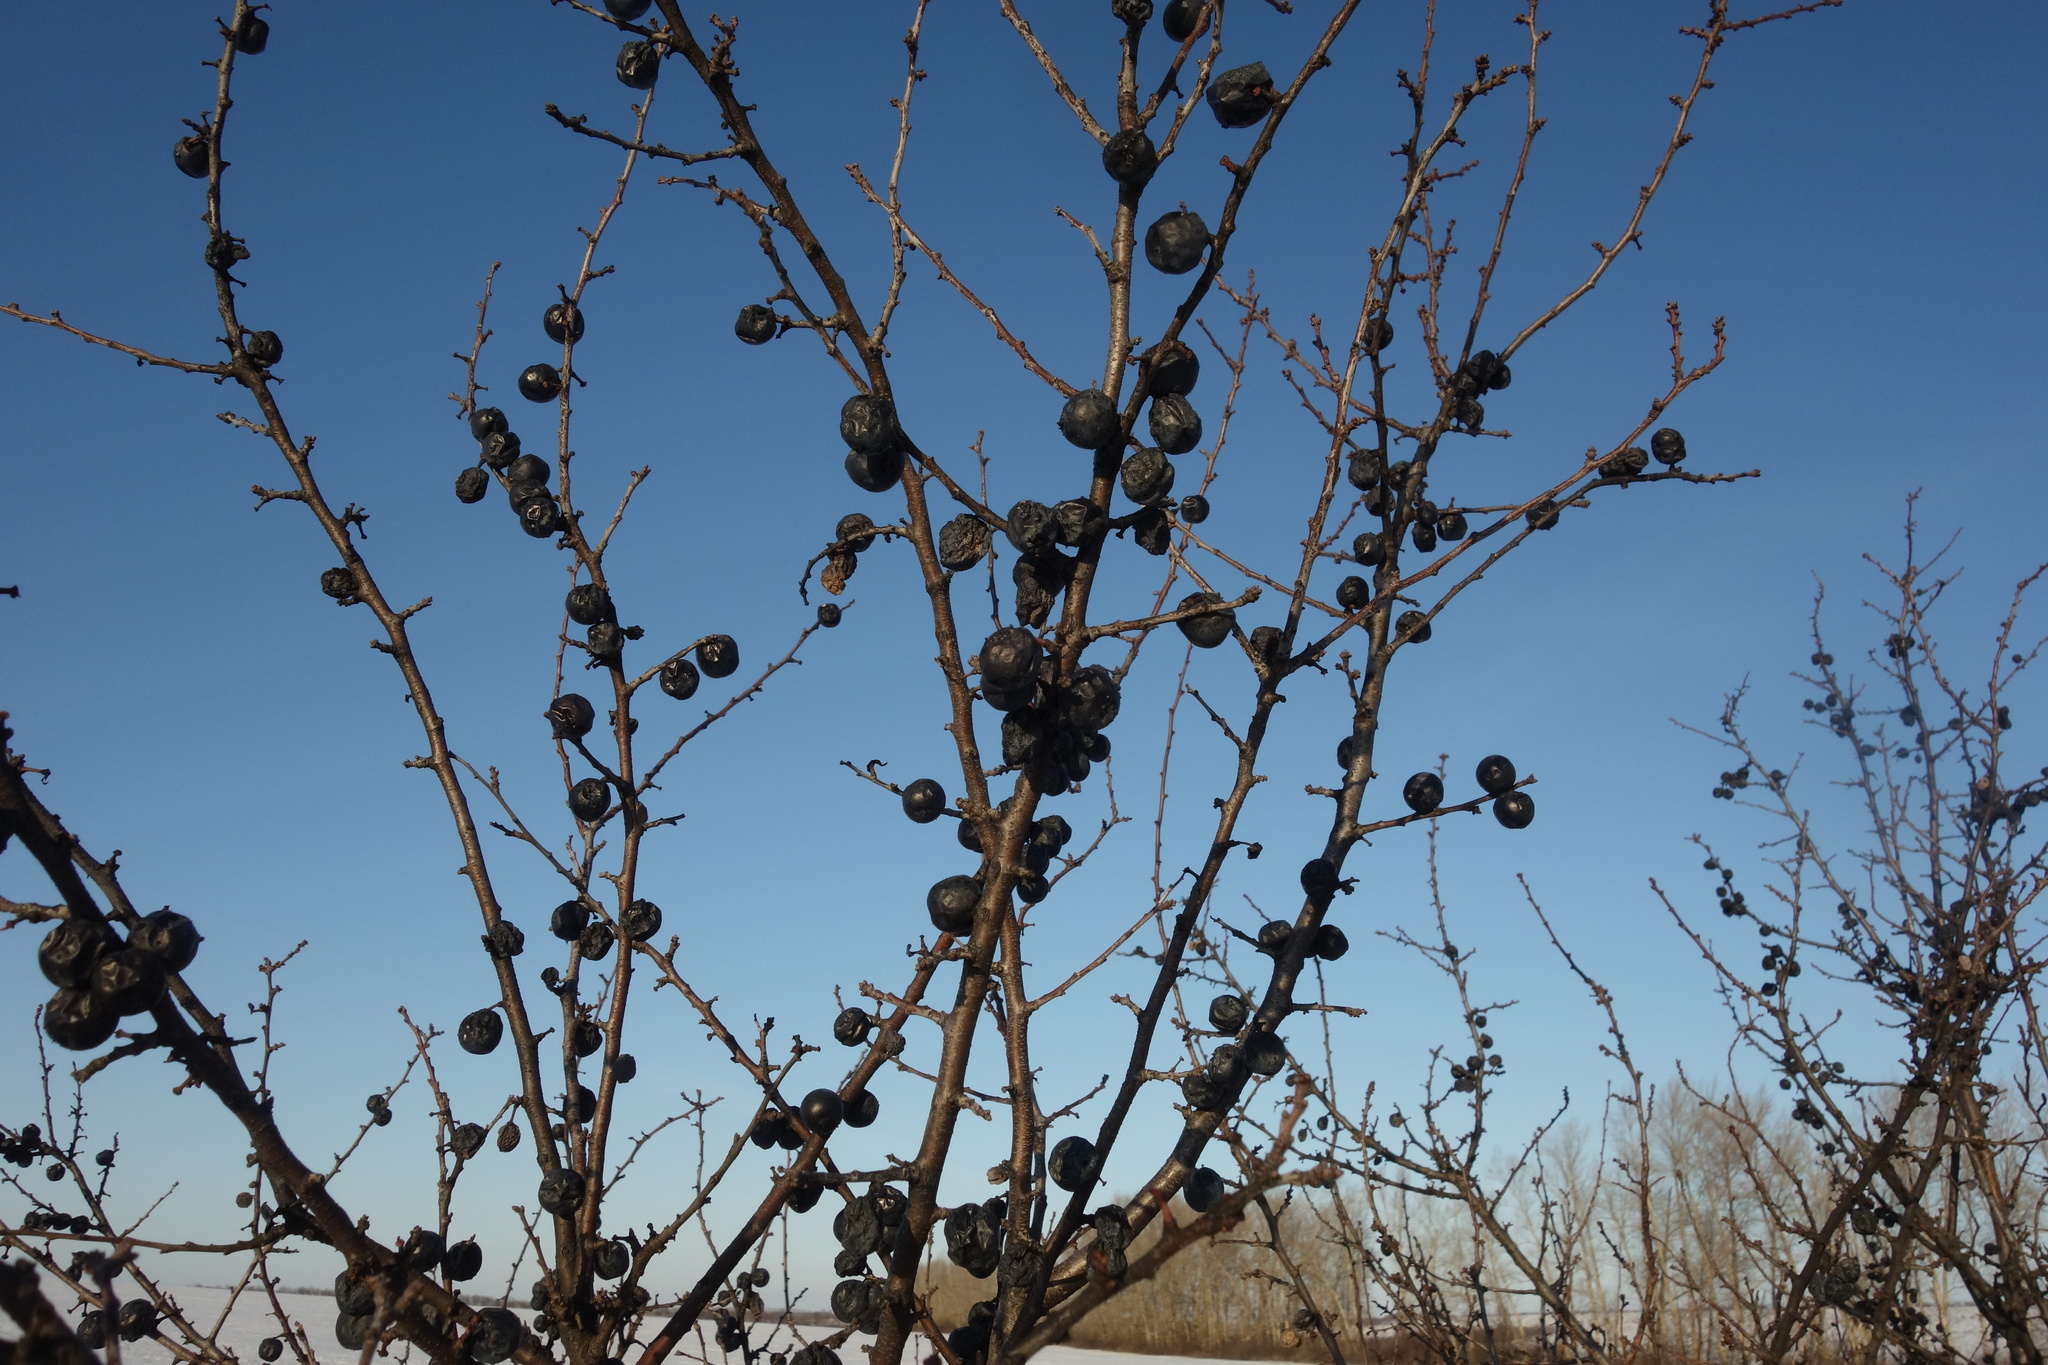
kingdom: Plantae
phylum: Tracheophyta
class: Magnoliopsida
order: Rosales
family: Rosaceae
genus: Prunus
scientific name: Prunus spinosa
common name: Blackthorn
